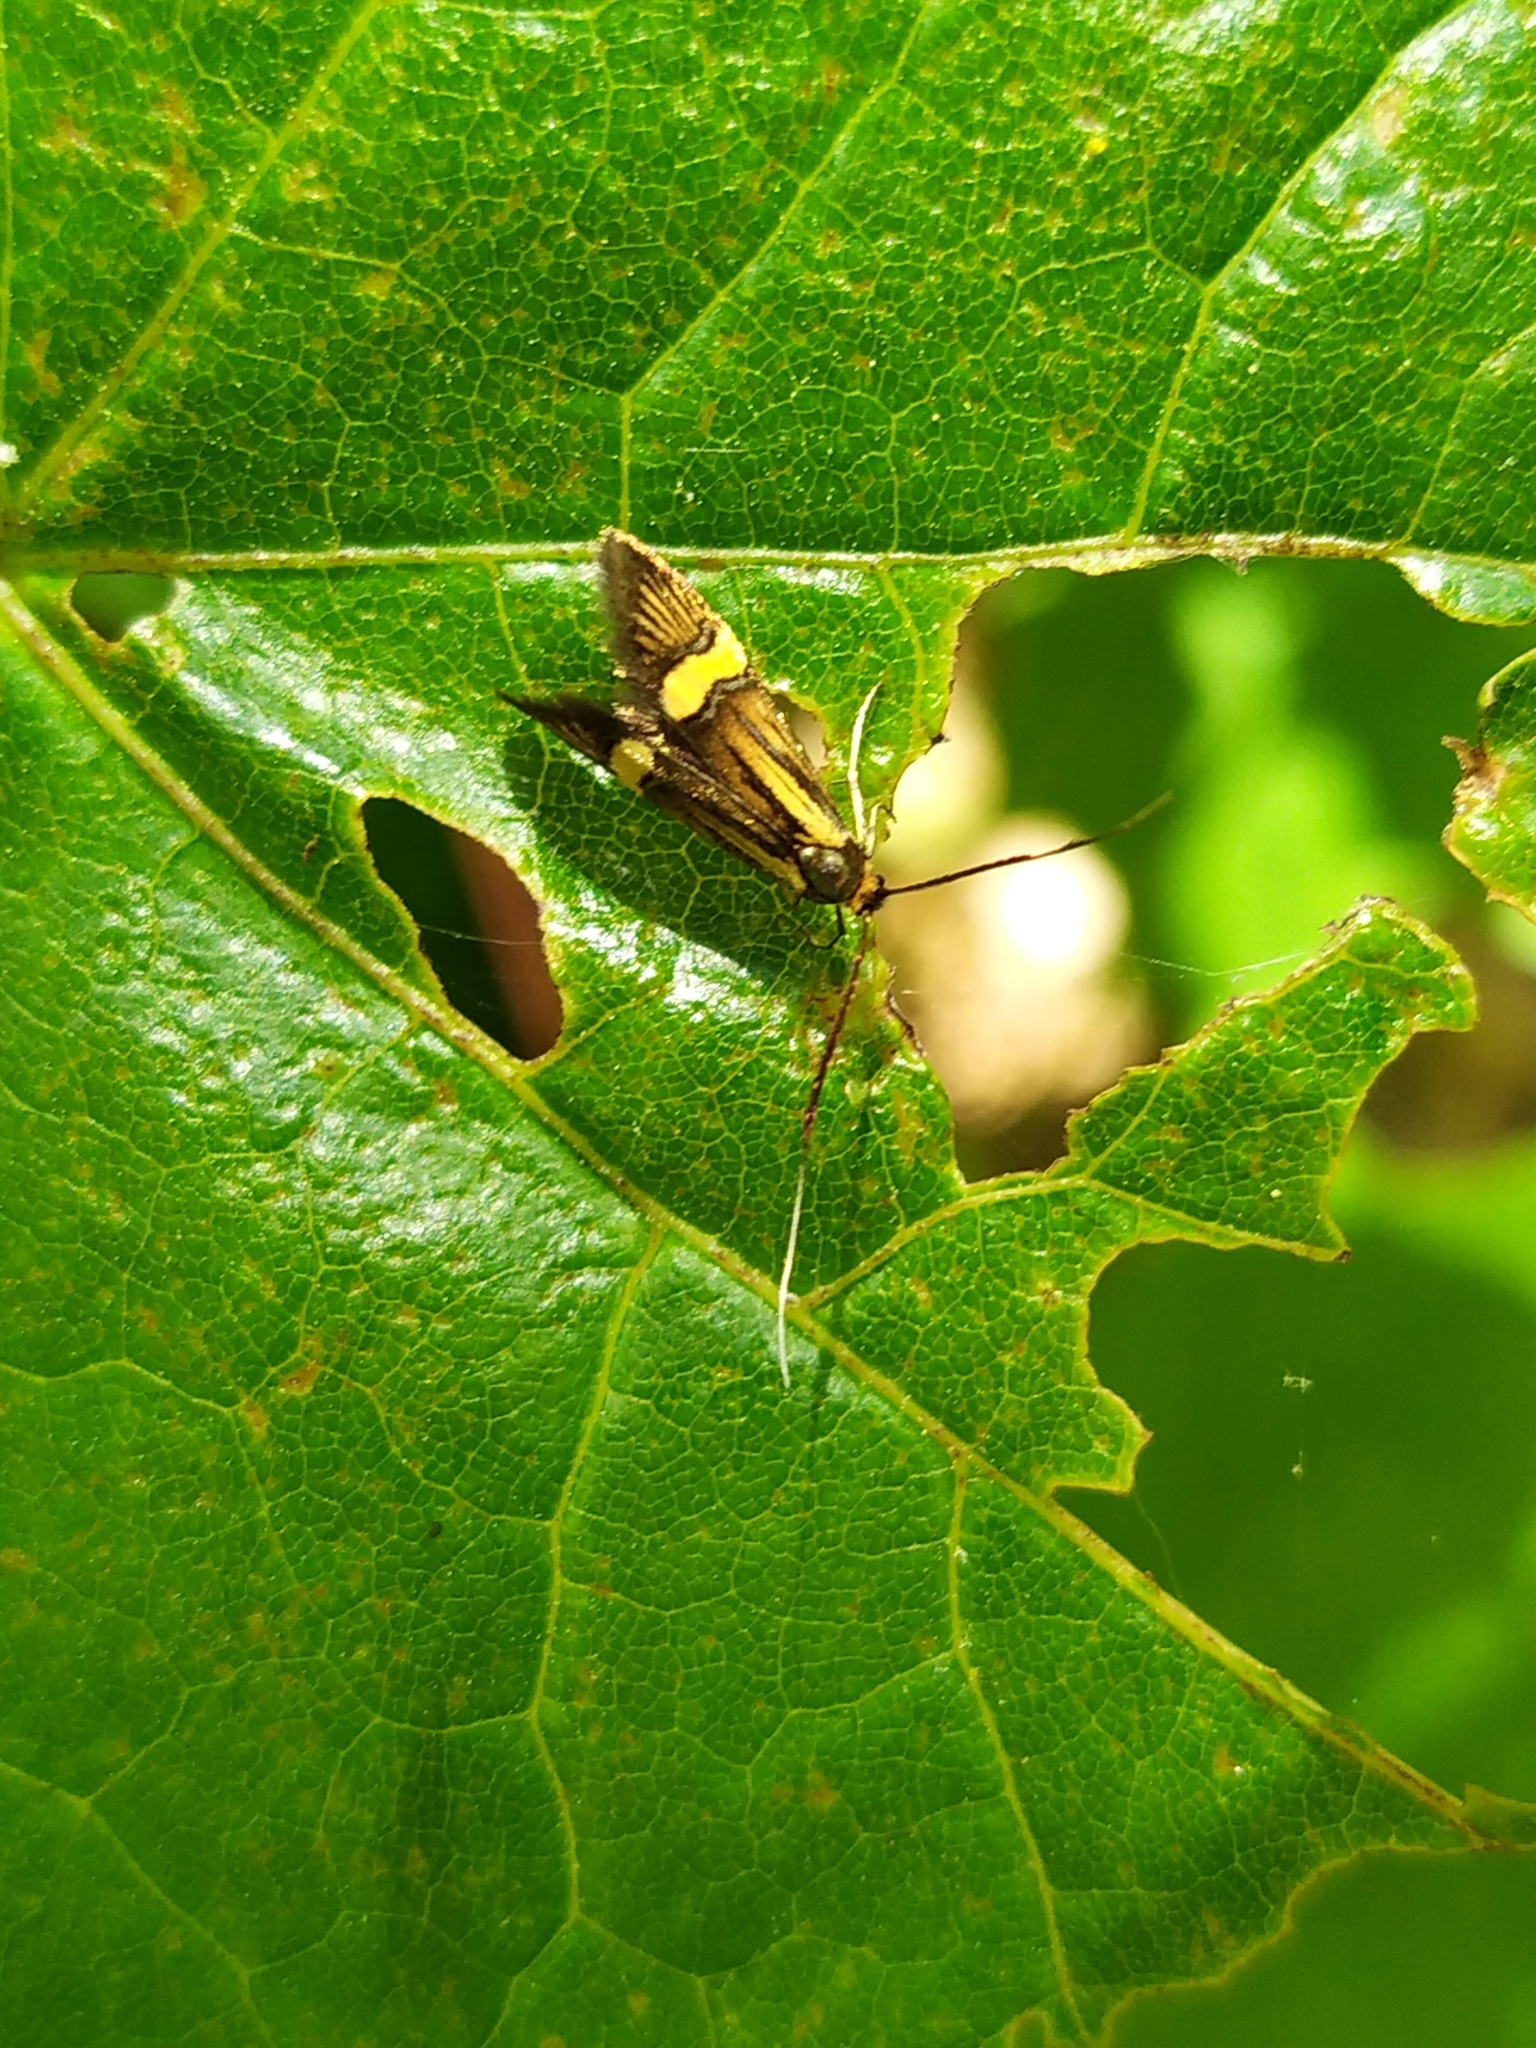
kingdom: Animalia
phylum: Arthropoda
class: Insecta
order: Lepidoptera
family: Adelidae
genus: Nemophora
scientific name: Nemophora degeerella
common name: Yellow-barred long-horn
